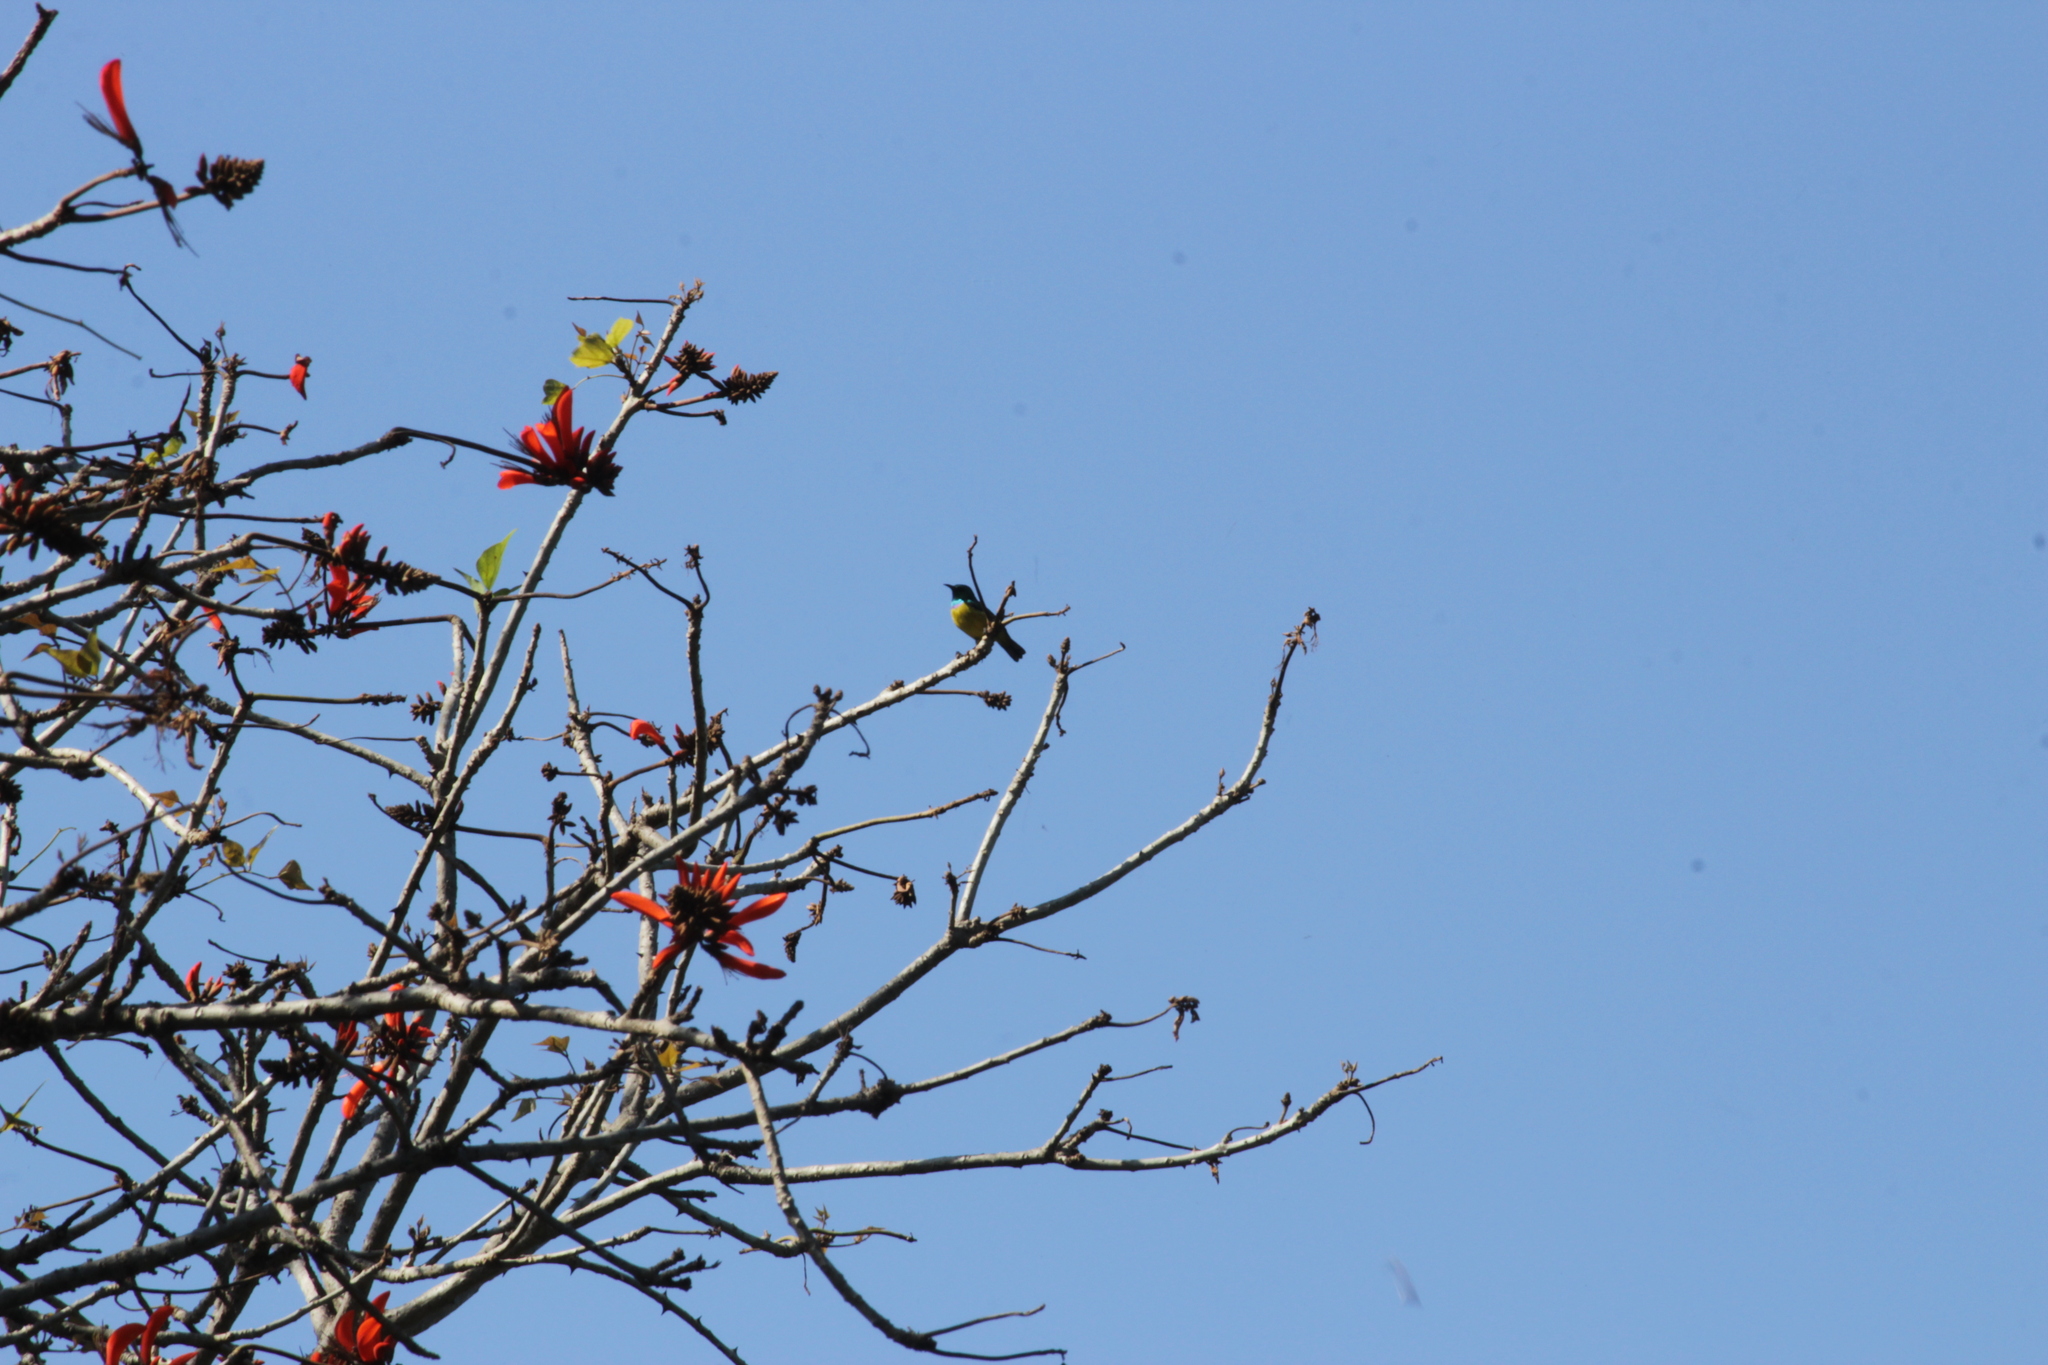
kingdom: Animalia
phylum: Chordata
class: Aves
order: Passeriformes
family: Nectariniidae
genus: Hedydipna
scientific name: Hedydipna collaris
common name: Collared sunbird
